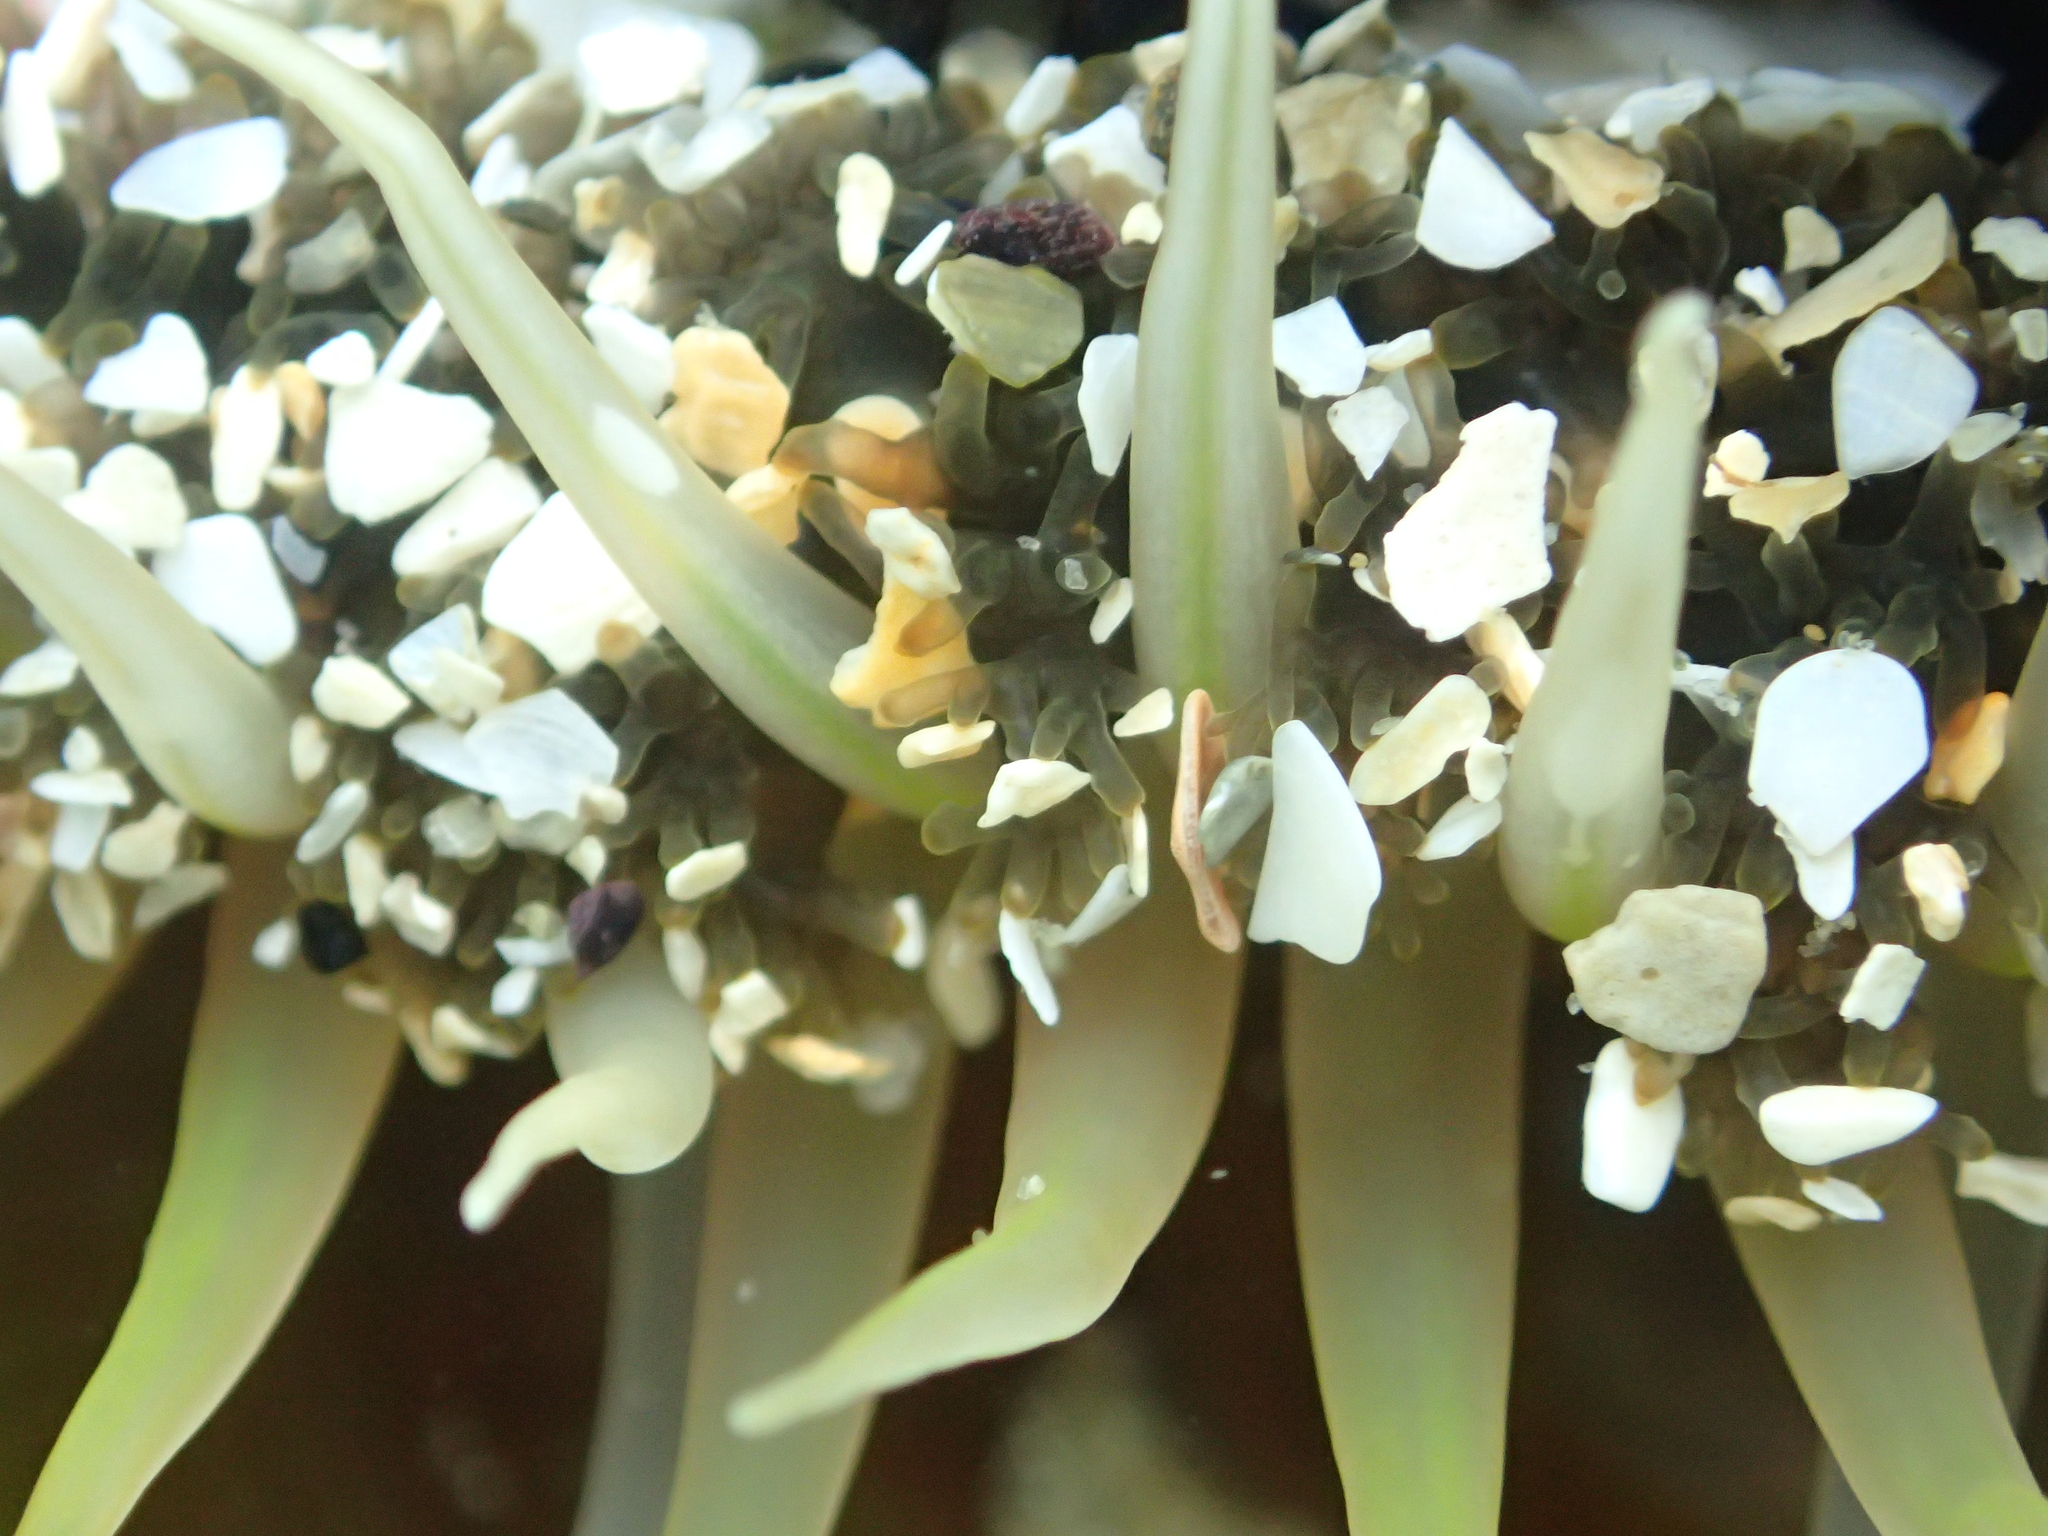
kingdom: Animalia
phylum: Cnidaria
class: Anthozoa
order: Actiniaria
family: Actiniidae
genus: Oulactis
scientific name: Oulactis muscosa
